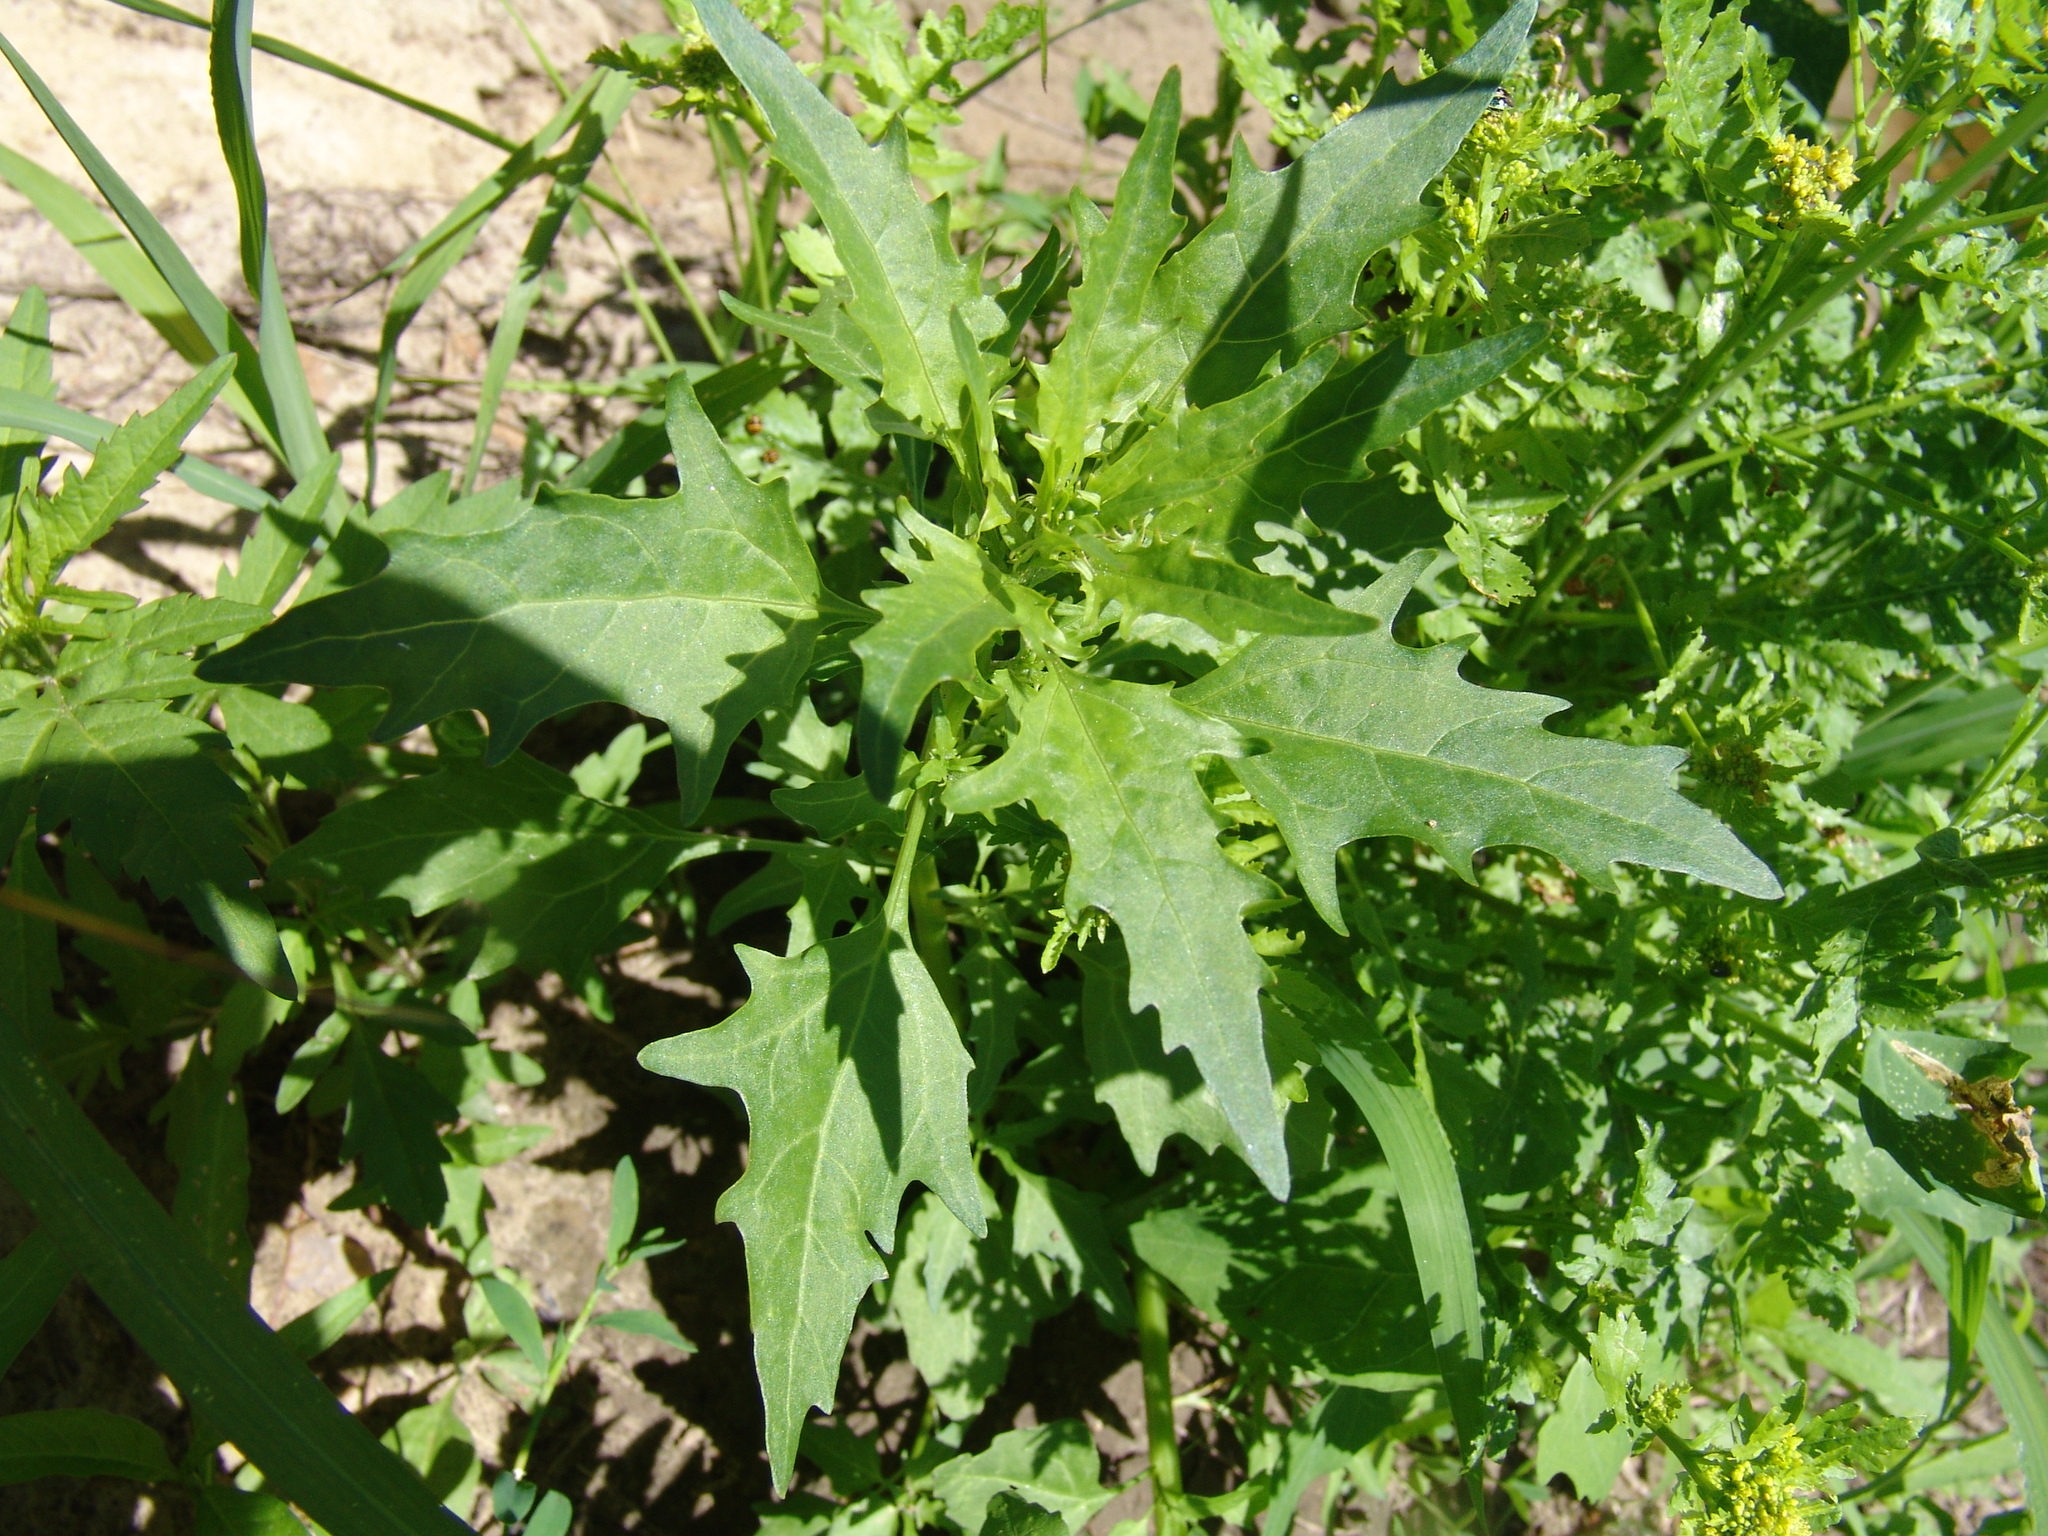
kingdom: Plantae
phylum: Tracheophyta
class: Magnoliopsida
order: Caryophyllales
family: Amaranthaceae
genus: Oxybasis
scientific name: Oxybasis rubra
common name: Red goosefoot
